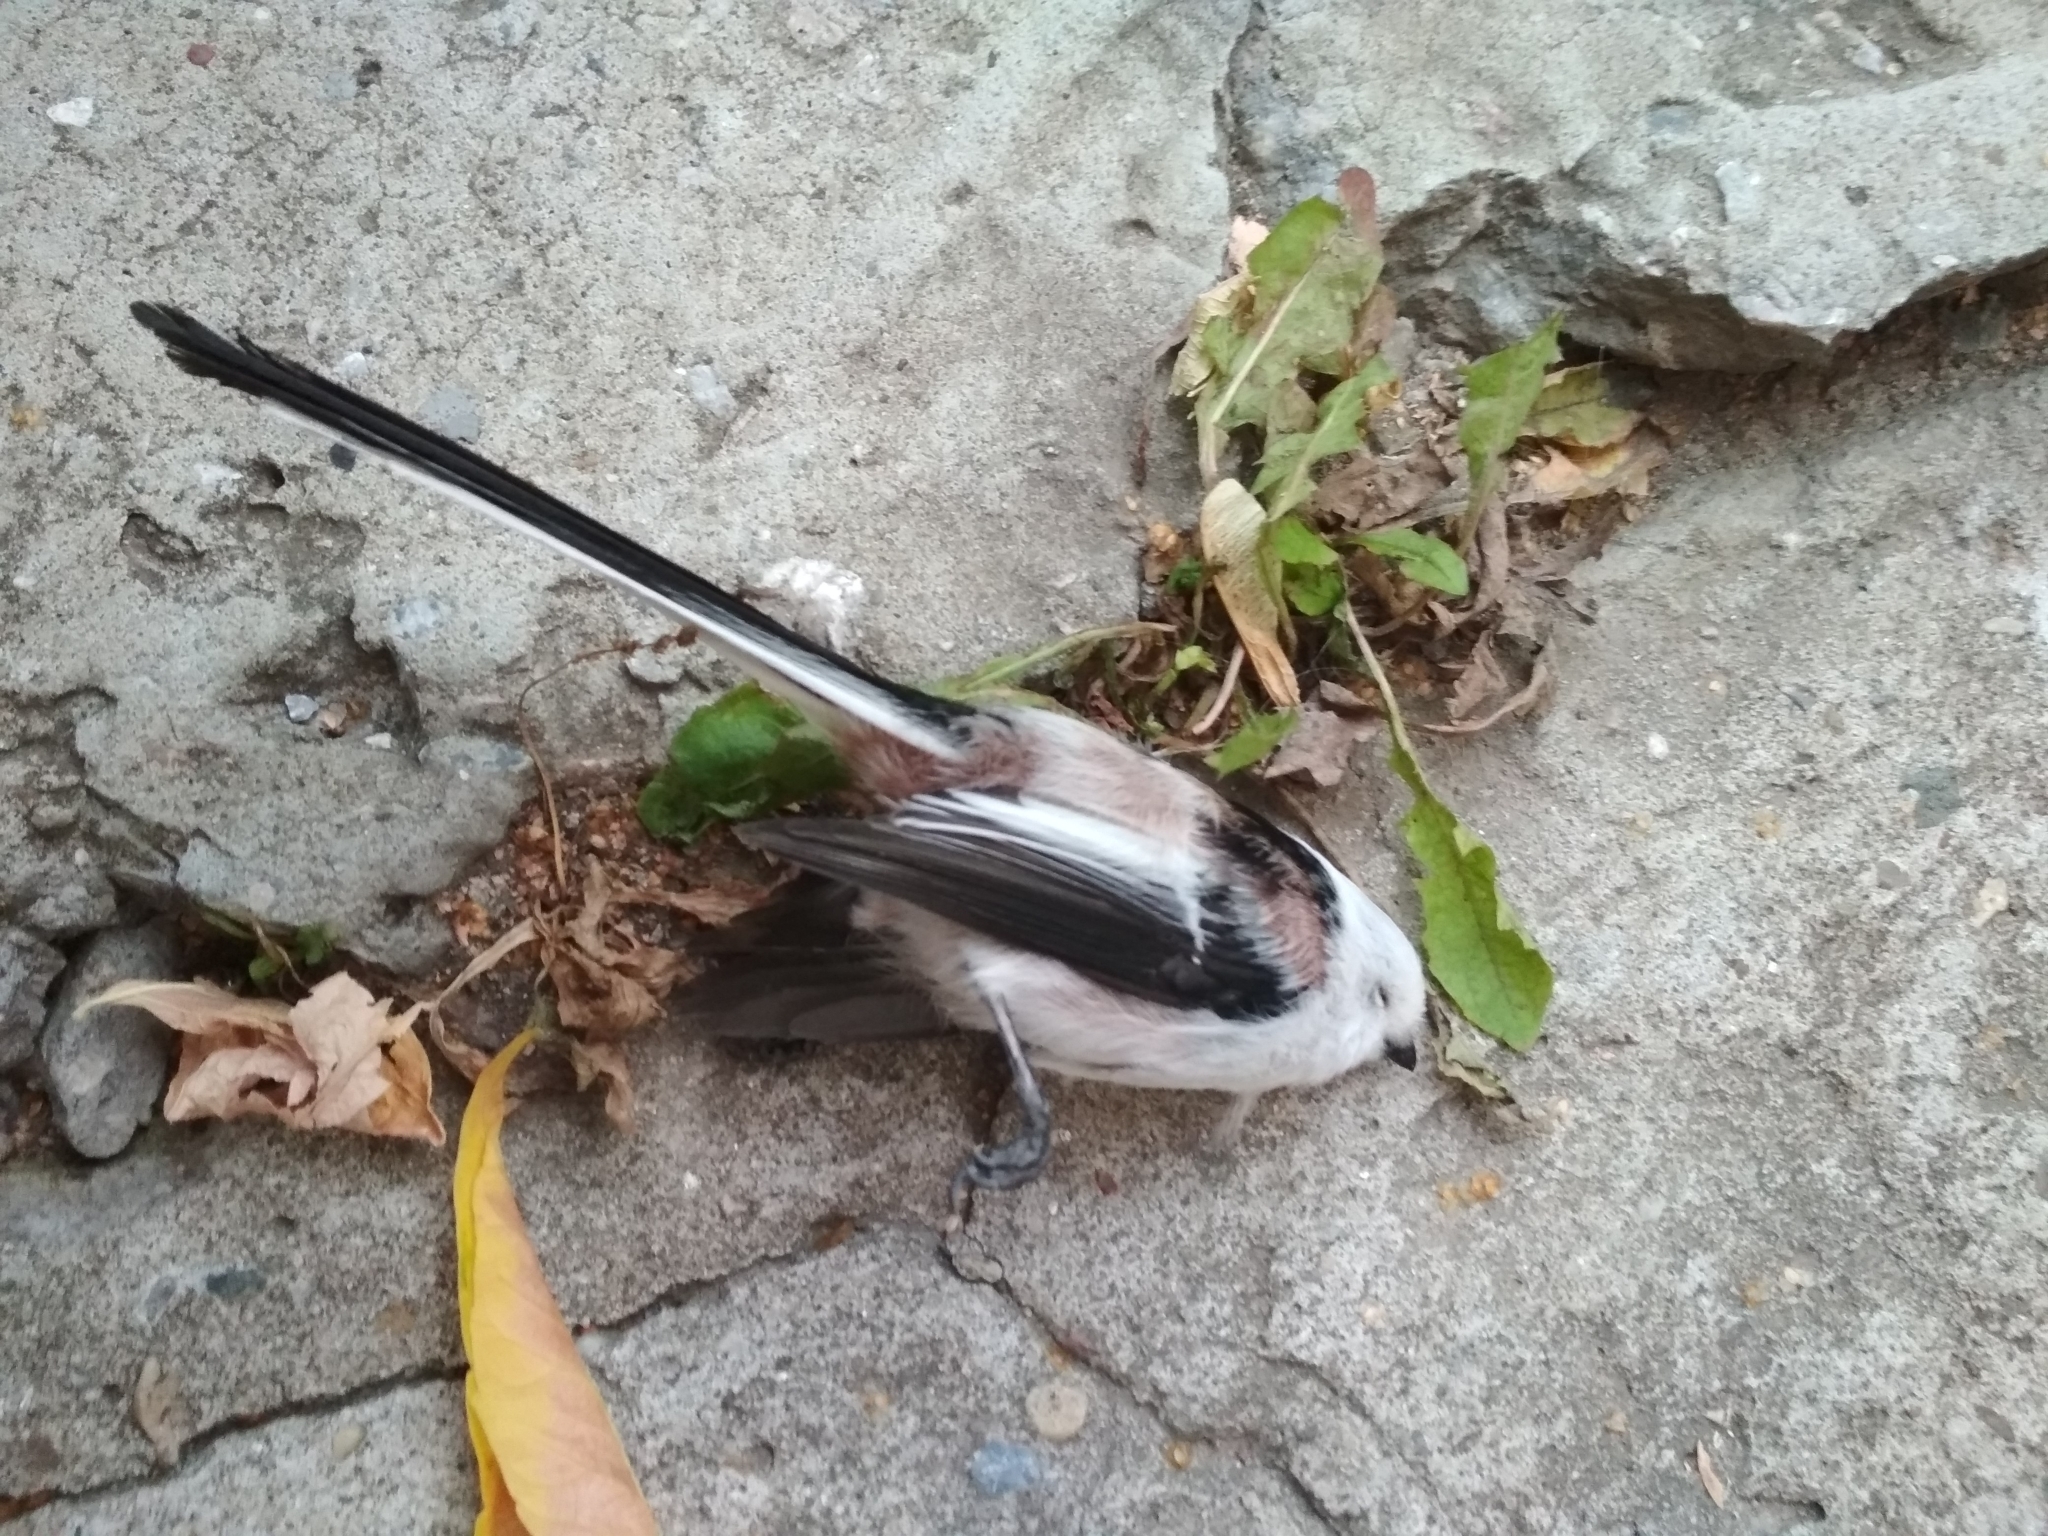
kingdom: Animalia
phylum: Chordata
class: Aves
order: Passeriformes
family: Aegithalidae
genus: Aegithalos
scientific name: Aegithalos caudatus
